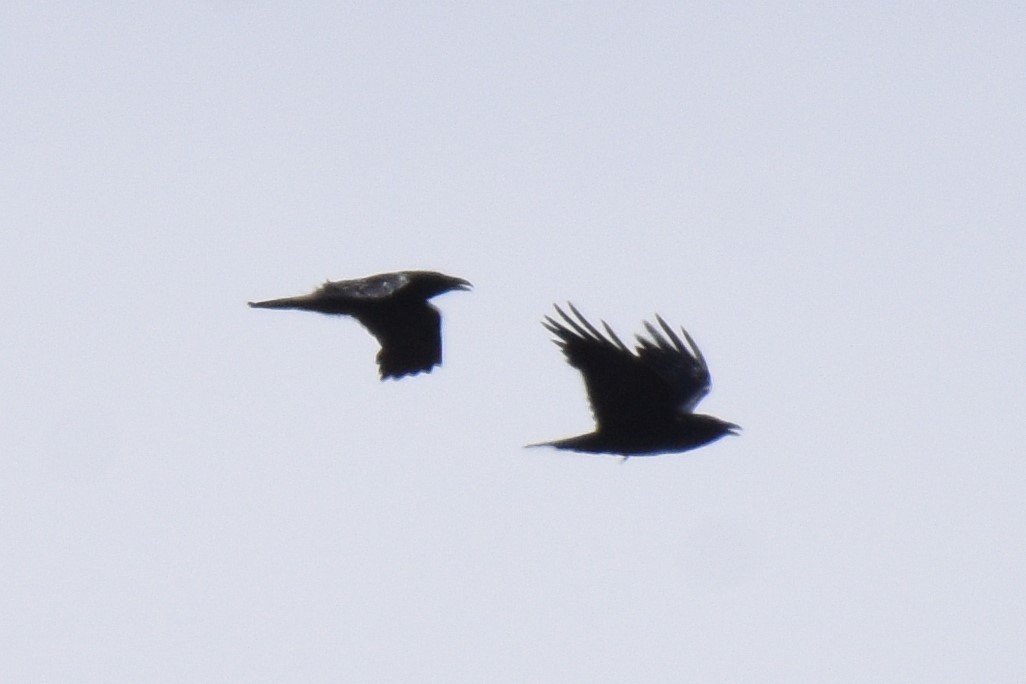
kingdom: Animalia
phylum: Chordata
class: Aves
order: Passeriformes
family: Corvidae
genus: Corvus
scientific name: Corvus corax
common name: Common raven
